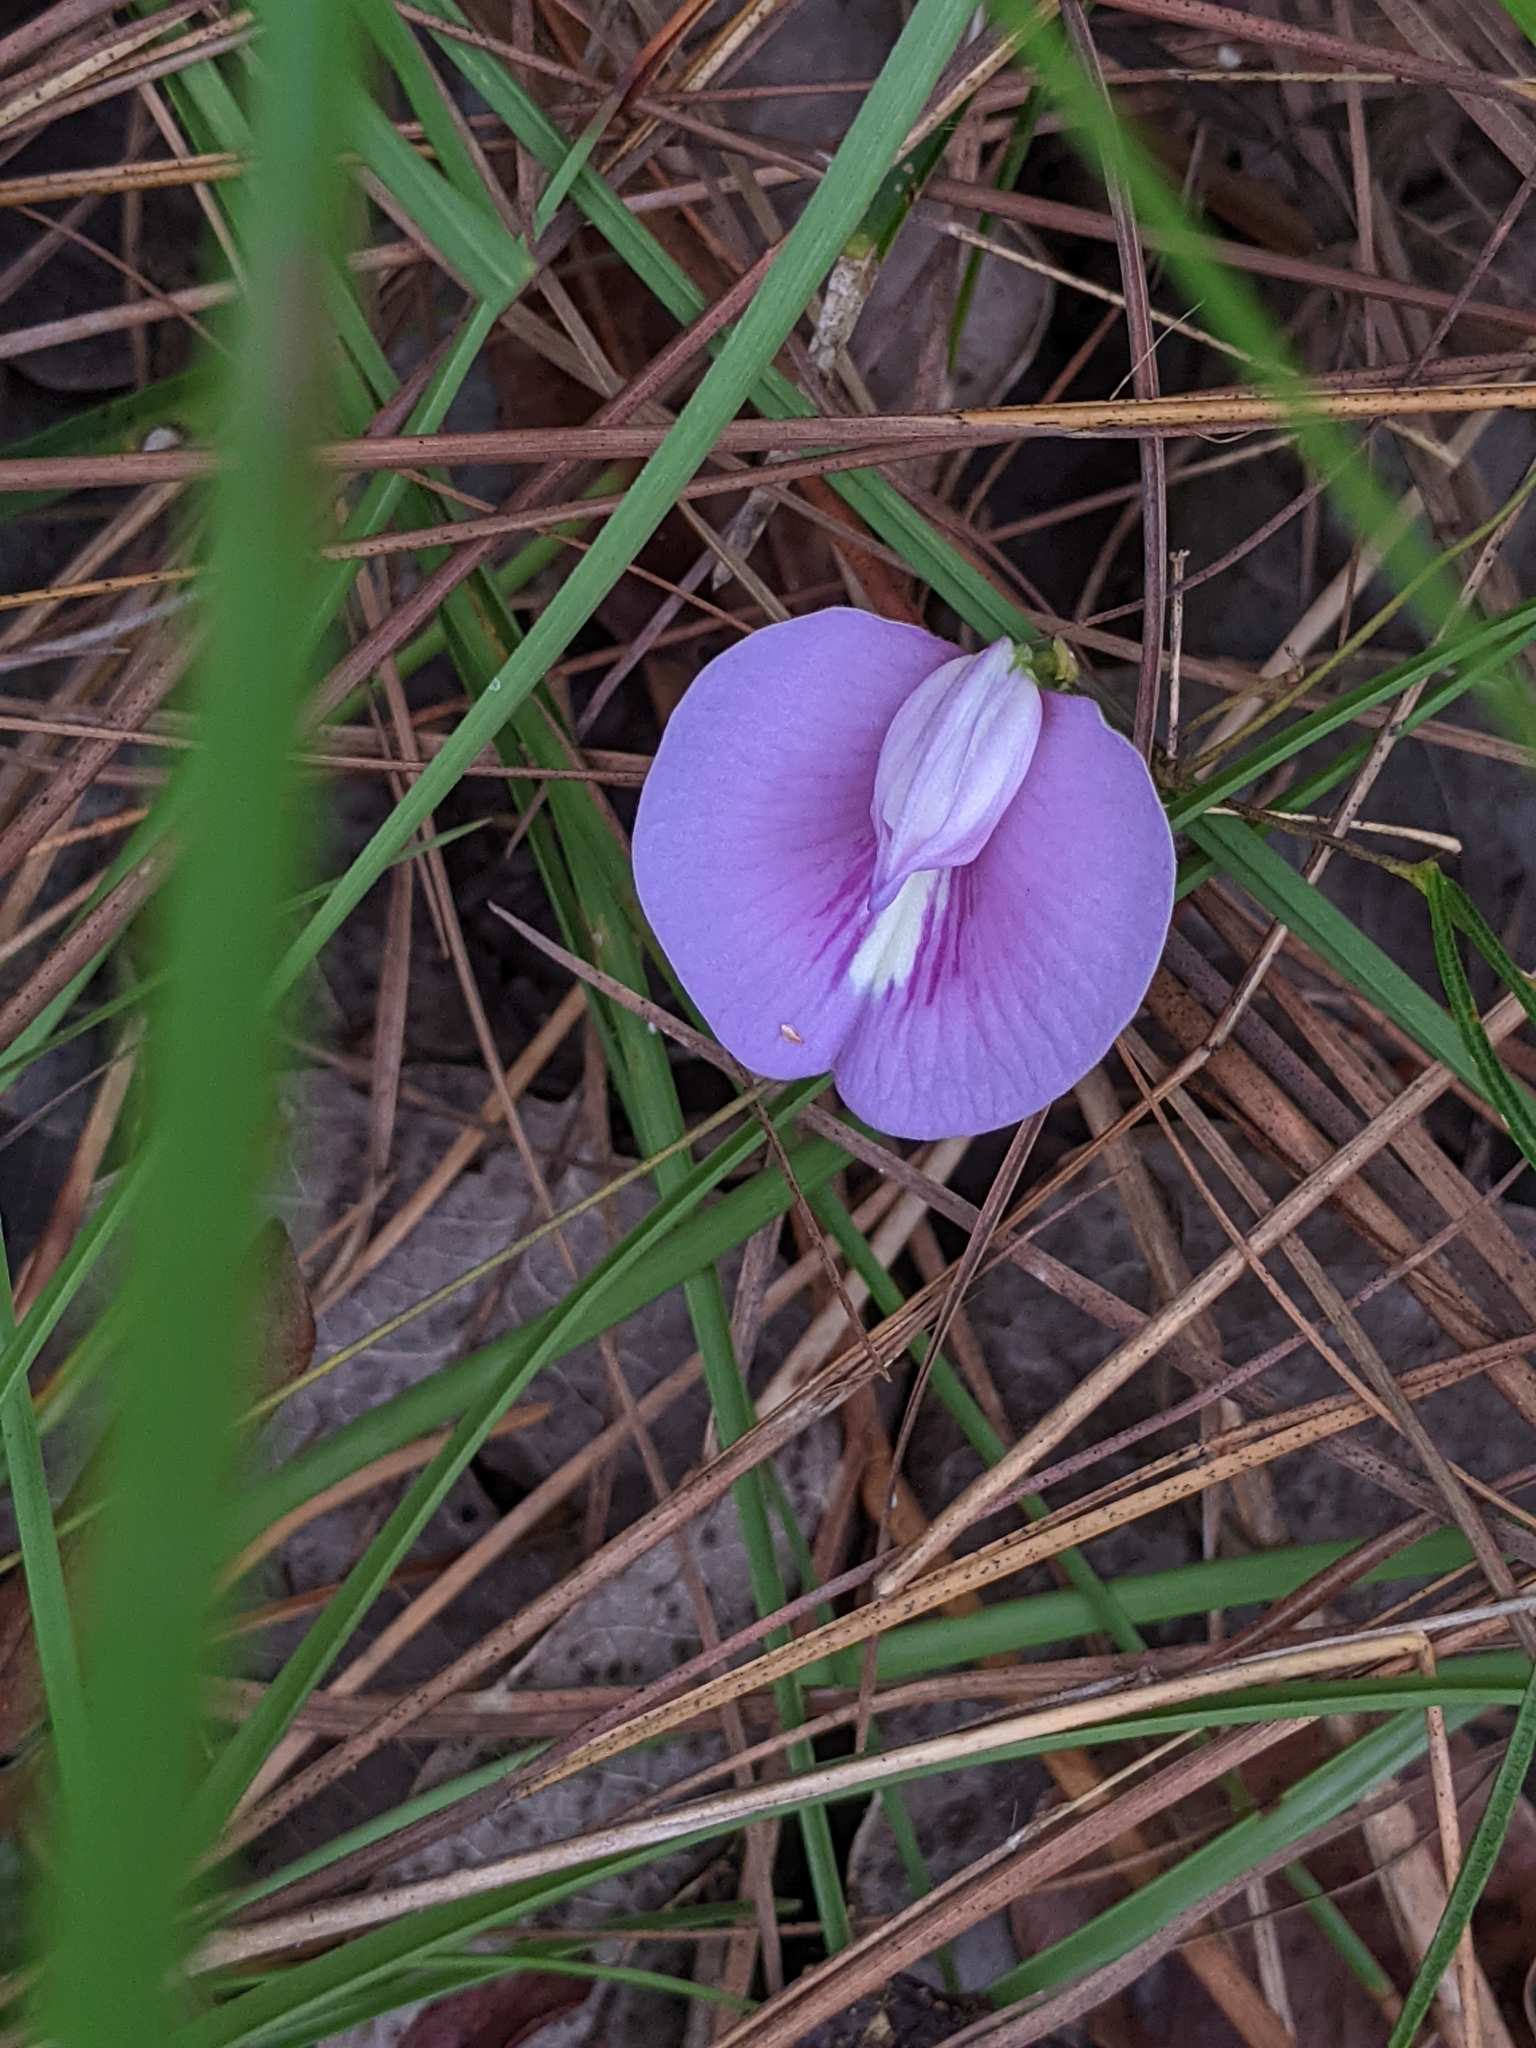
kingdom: Plantae
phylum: Tracheophyta
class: Magnoliopsida
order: Fabales
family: Fabaceae
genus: Centrosema
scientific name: Centrosema virginianum
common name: Butterfly-pea
